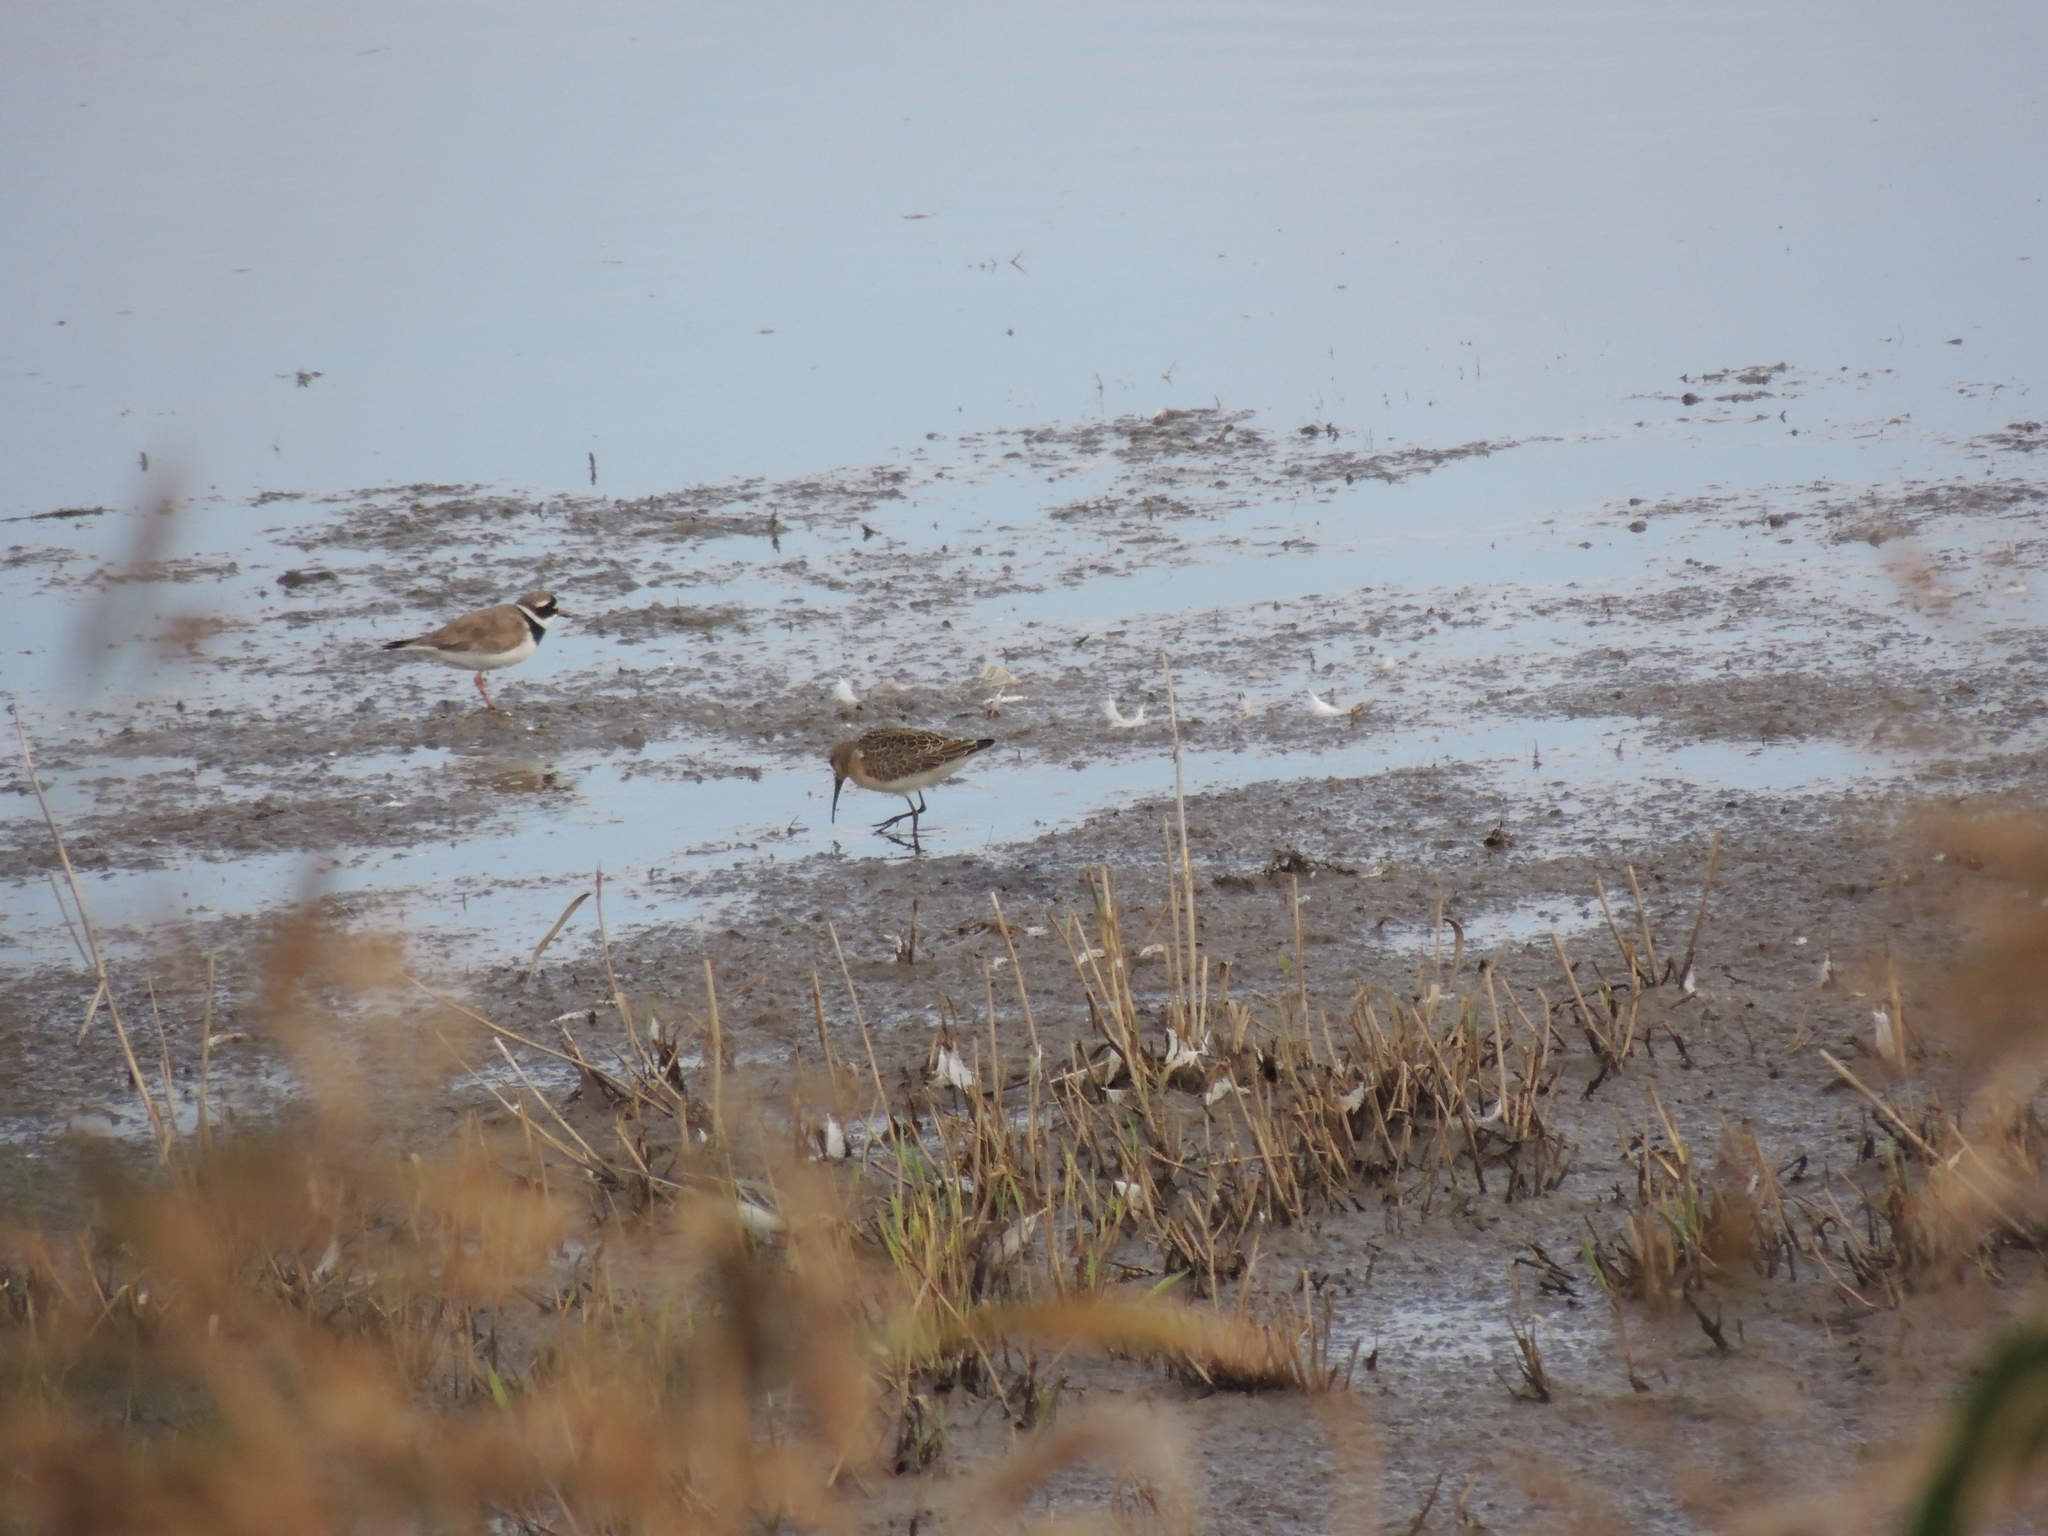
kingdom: Animalia
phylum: Chordata
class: Aves
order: Charadriiformes
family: Scolopacidae
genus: Calidris
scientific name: Calidris ferruginea
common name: Curlew sandpiper
